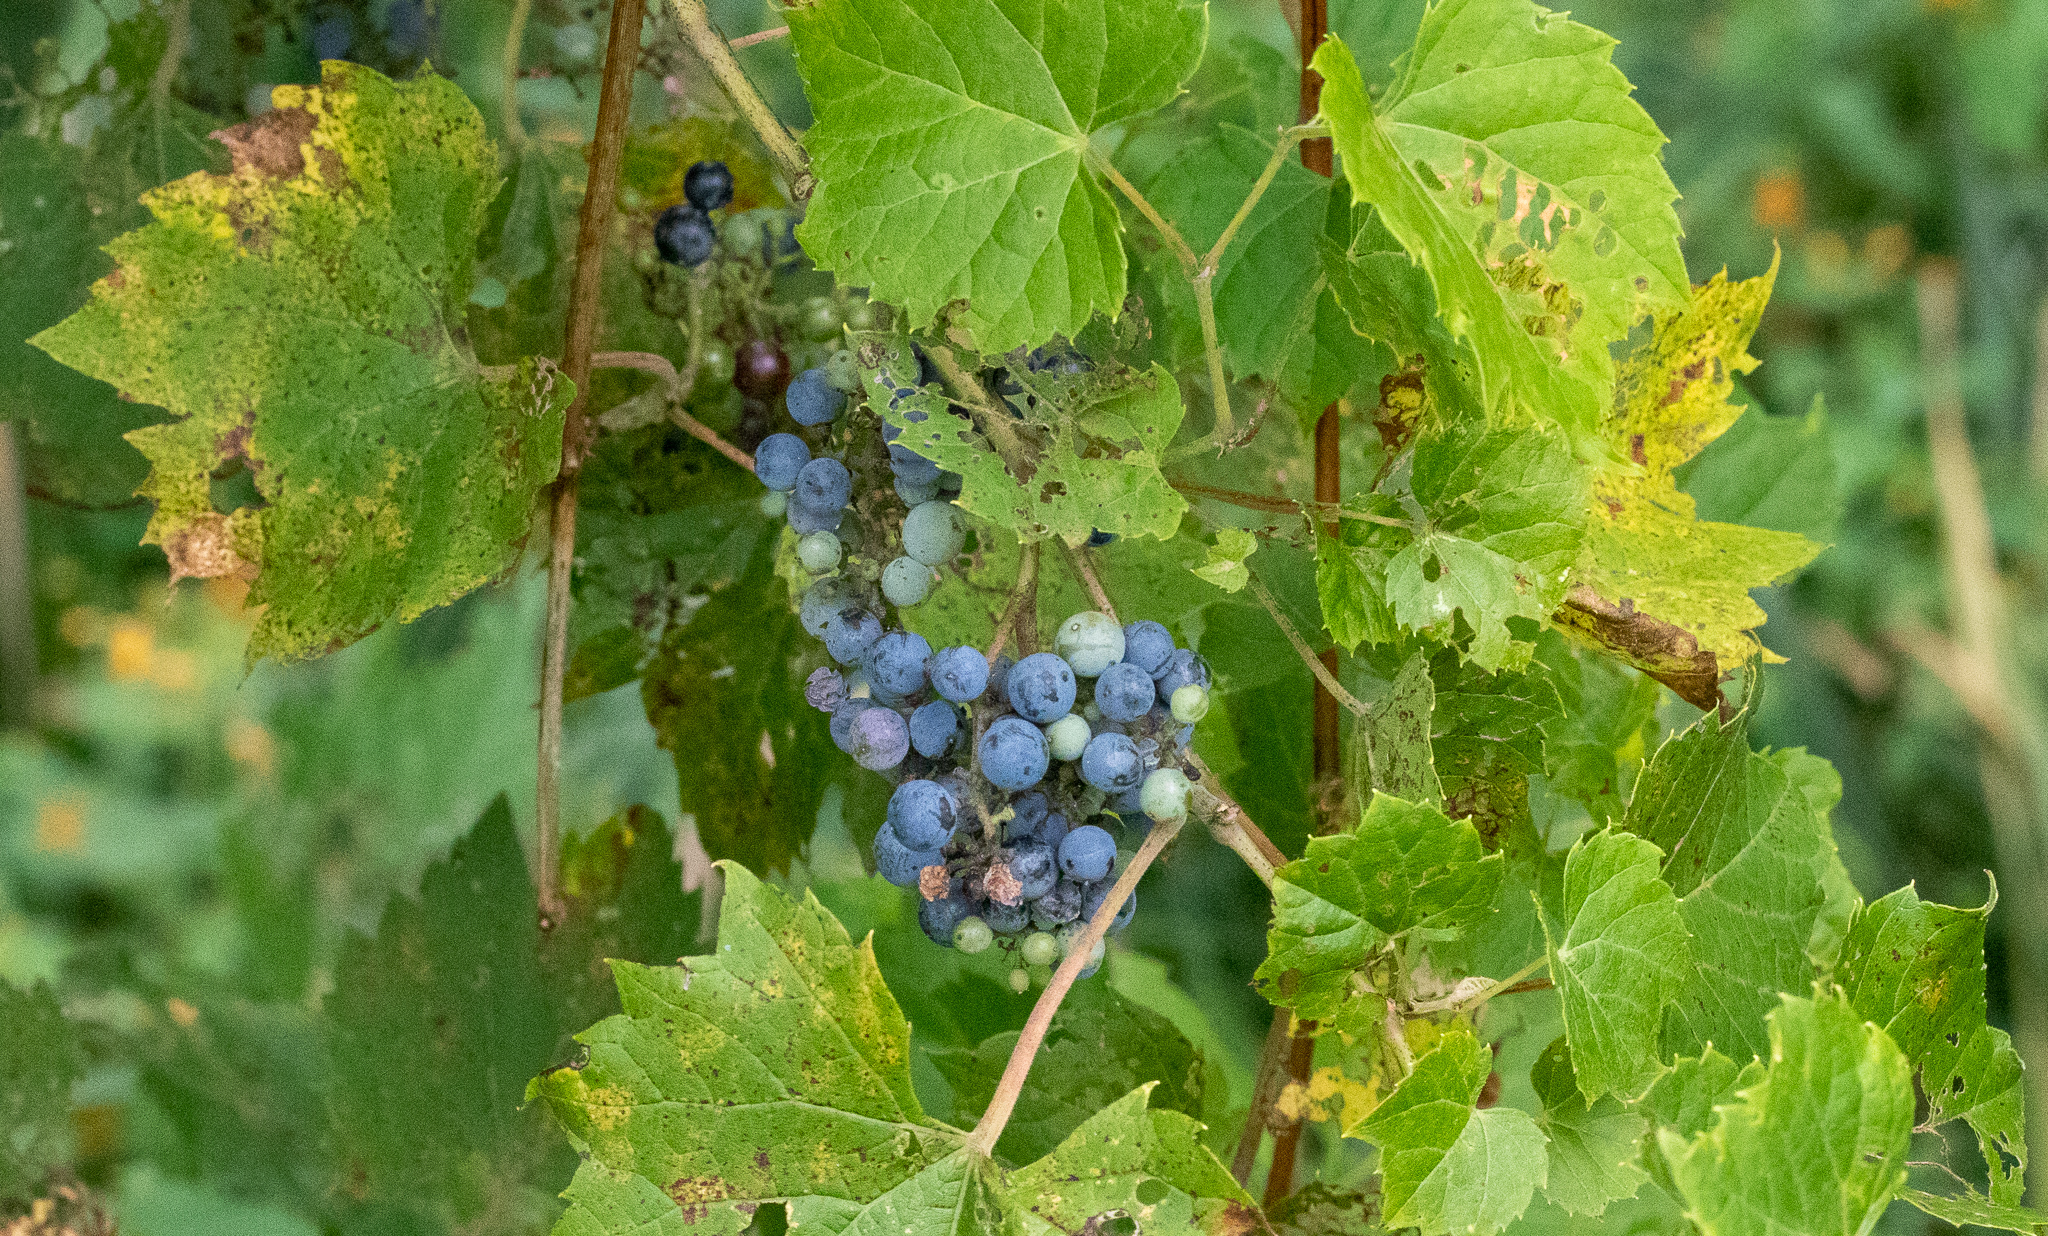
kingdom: Plantae
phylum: Tracheophyta
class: Magnoliopsida
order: Vitales
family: Vitaceae
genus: Vitis
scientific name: Vitis riparia
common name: Frost grape
